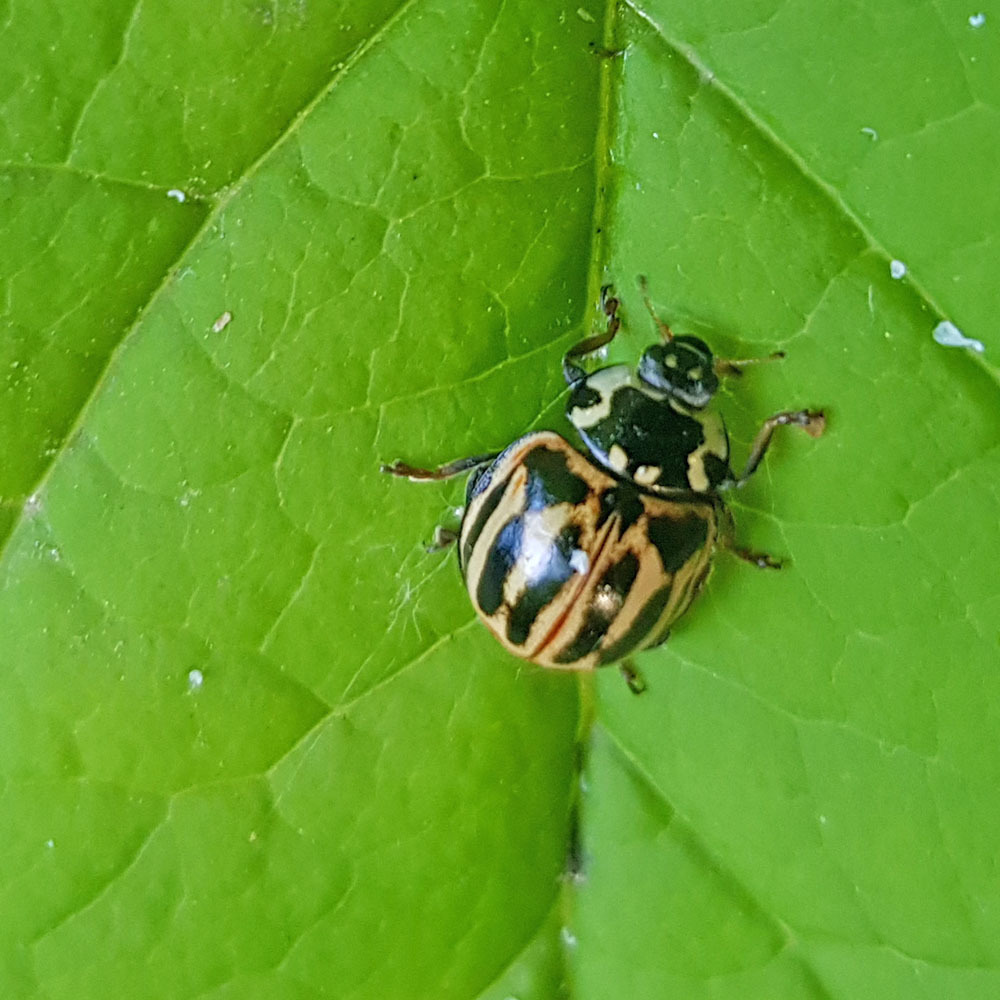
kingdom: Animalia
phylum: Arthropoda
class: Insecta
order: Coleoptera
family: Coccinellidae
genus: Anatis
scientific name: Anatis ocellata
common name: Eyed ladybird
